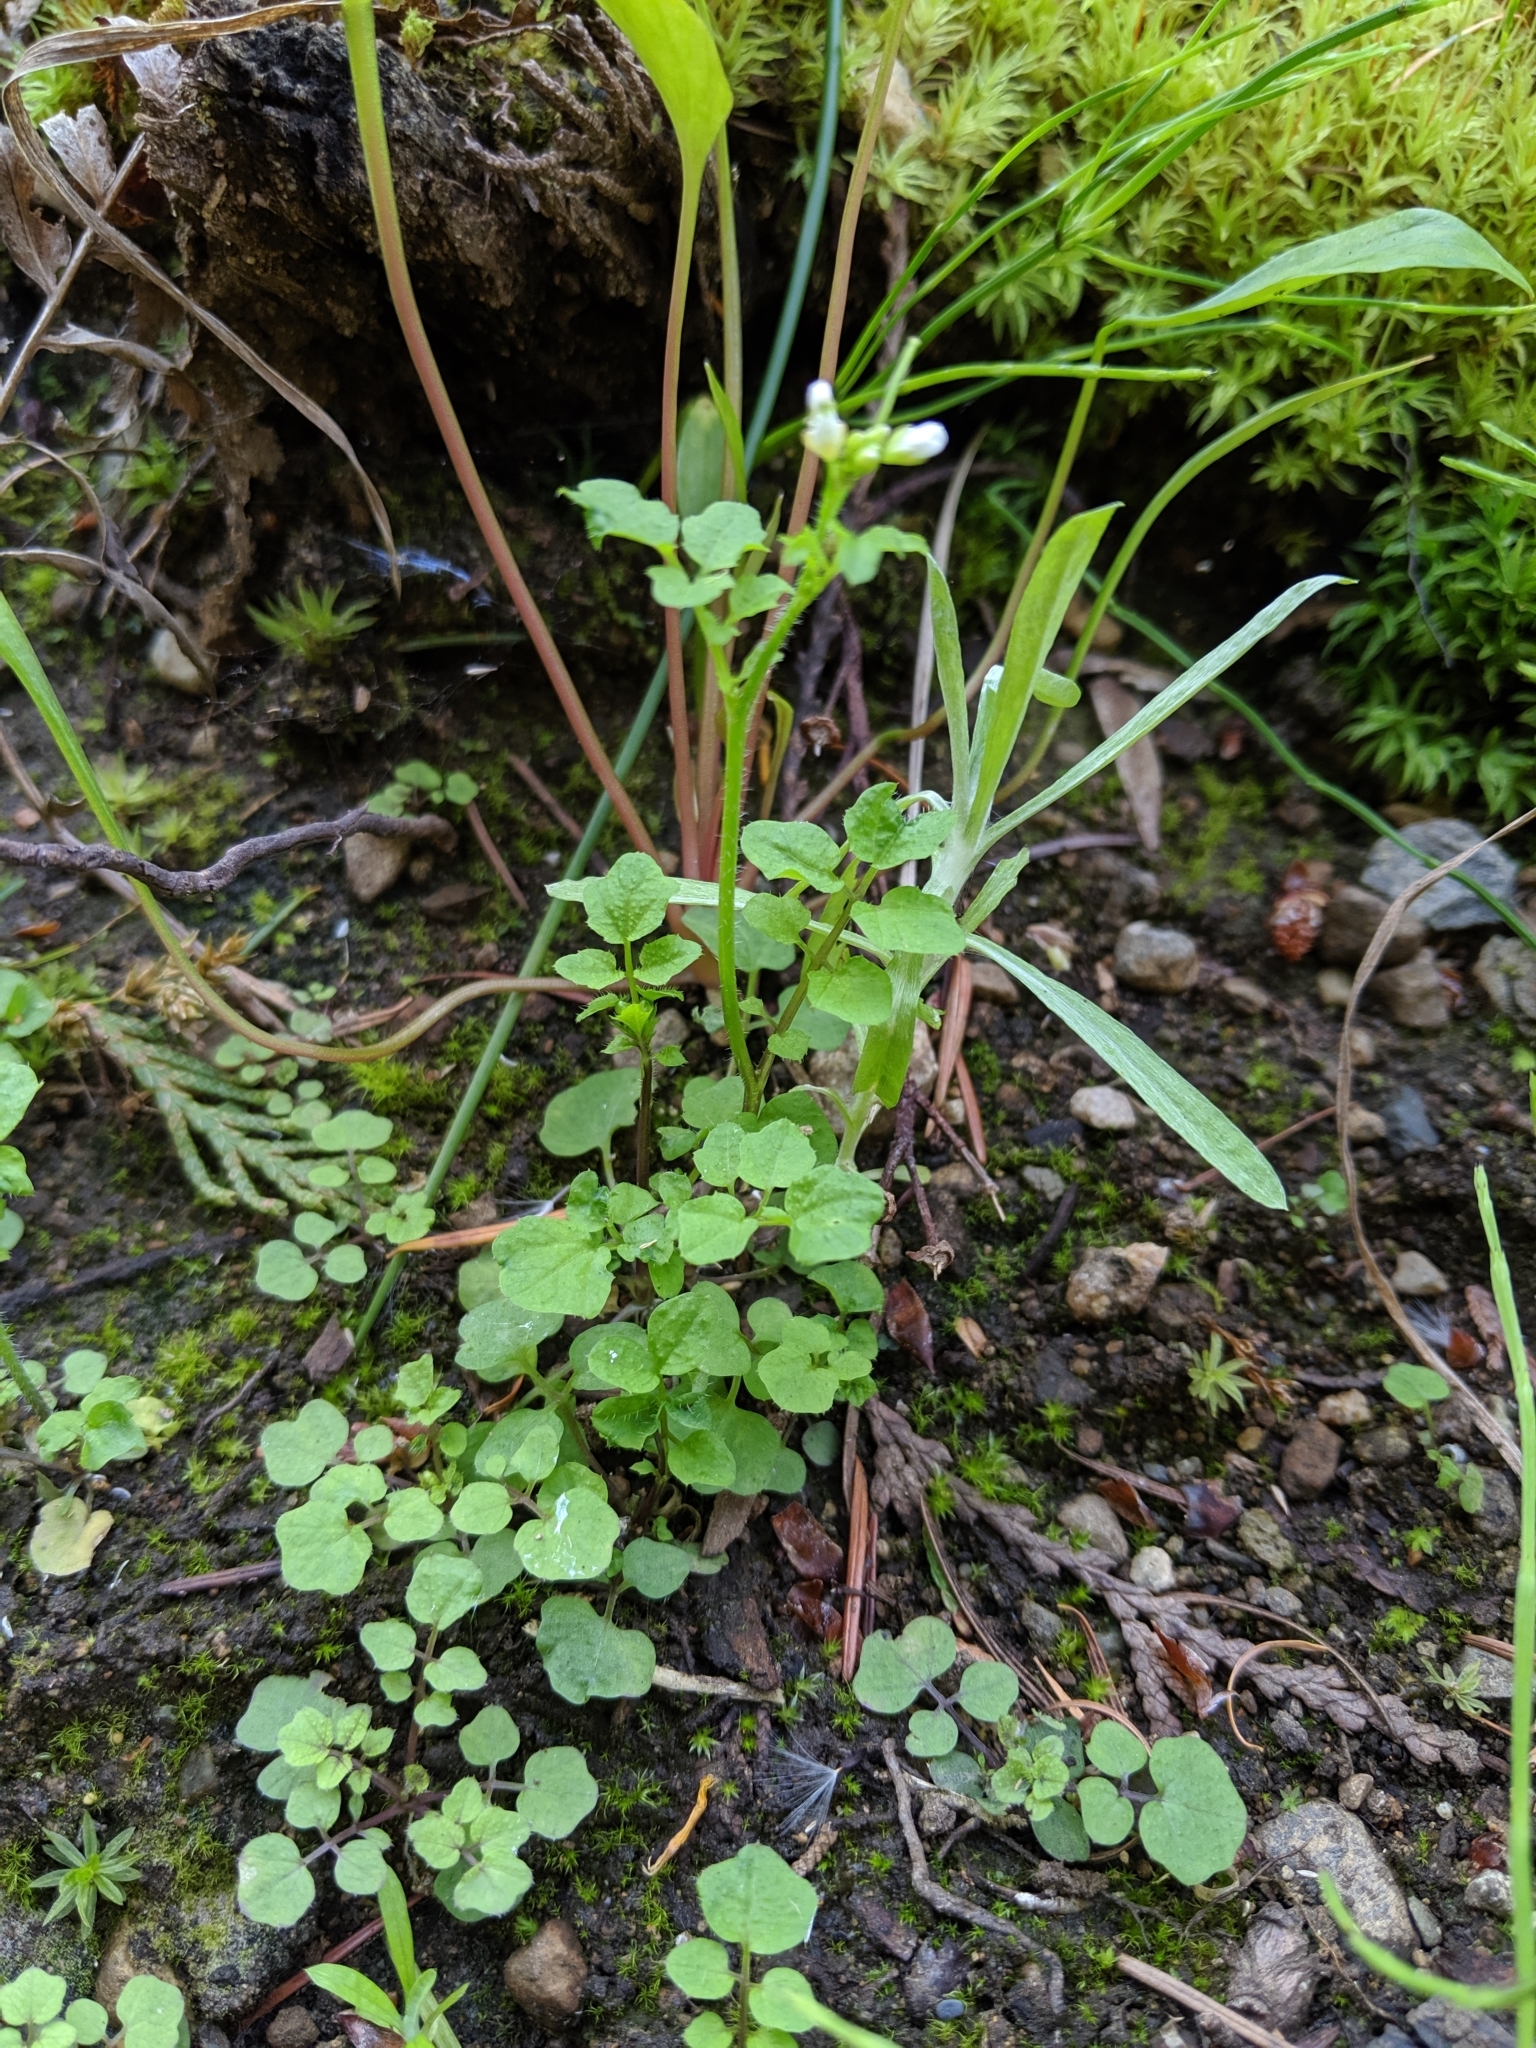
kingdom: Plantae
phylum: Tracheophyta
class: Magnoliopsida
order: Brassicales
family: Brassicaceae
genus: Cardamine
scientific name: Cardamine flexuosa
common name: Woodland bittercress
